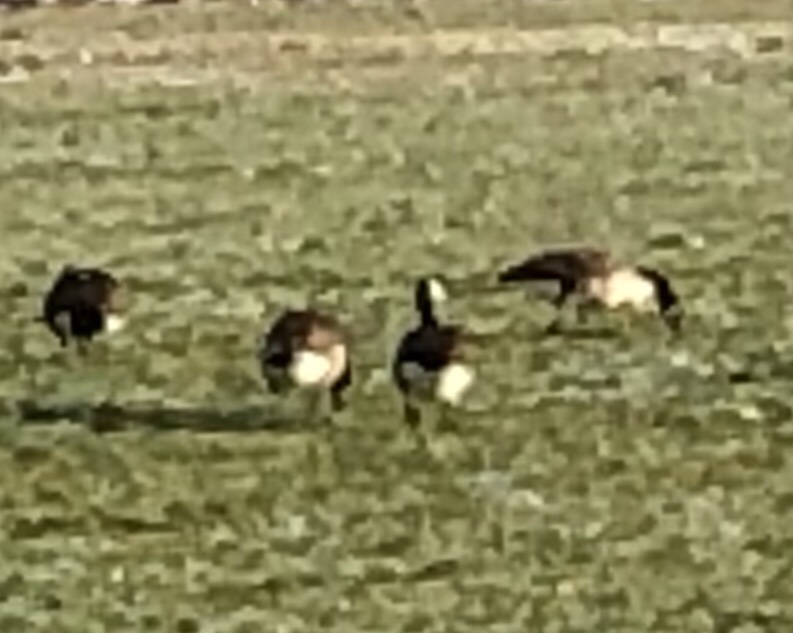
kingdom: Animalia
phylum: Chordata
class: Aves
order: Anseriformes
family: Anatidae
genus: Branta
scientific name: Branta canadensis
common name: Canada goose
